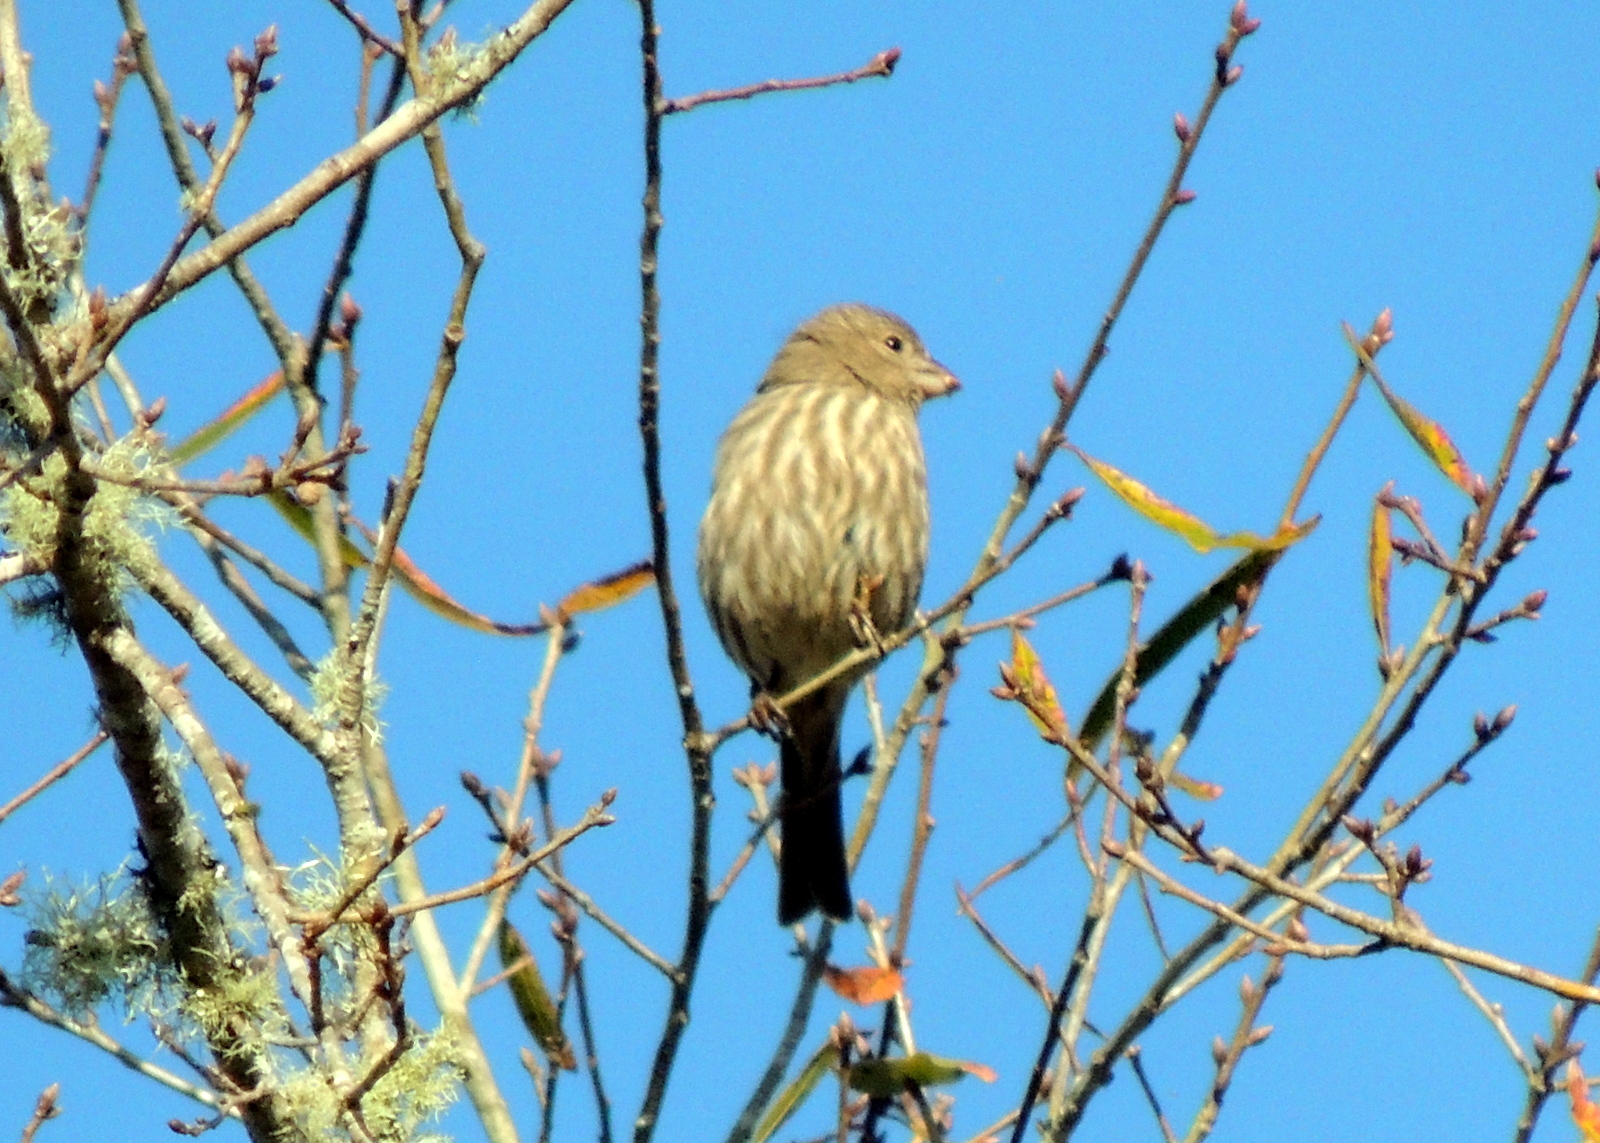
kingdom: Animalia
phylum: Chordata
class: Aves
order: Passeriformes
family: Fringillidae
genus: Haemorhous
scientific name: Haemorhous mexicanus
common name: House finch
